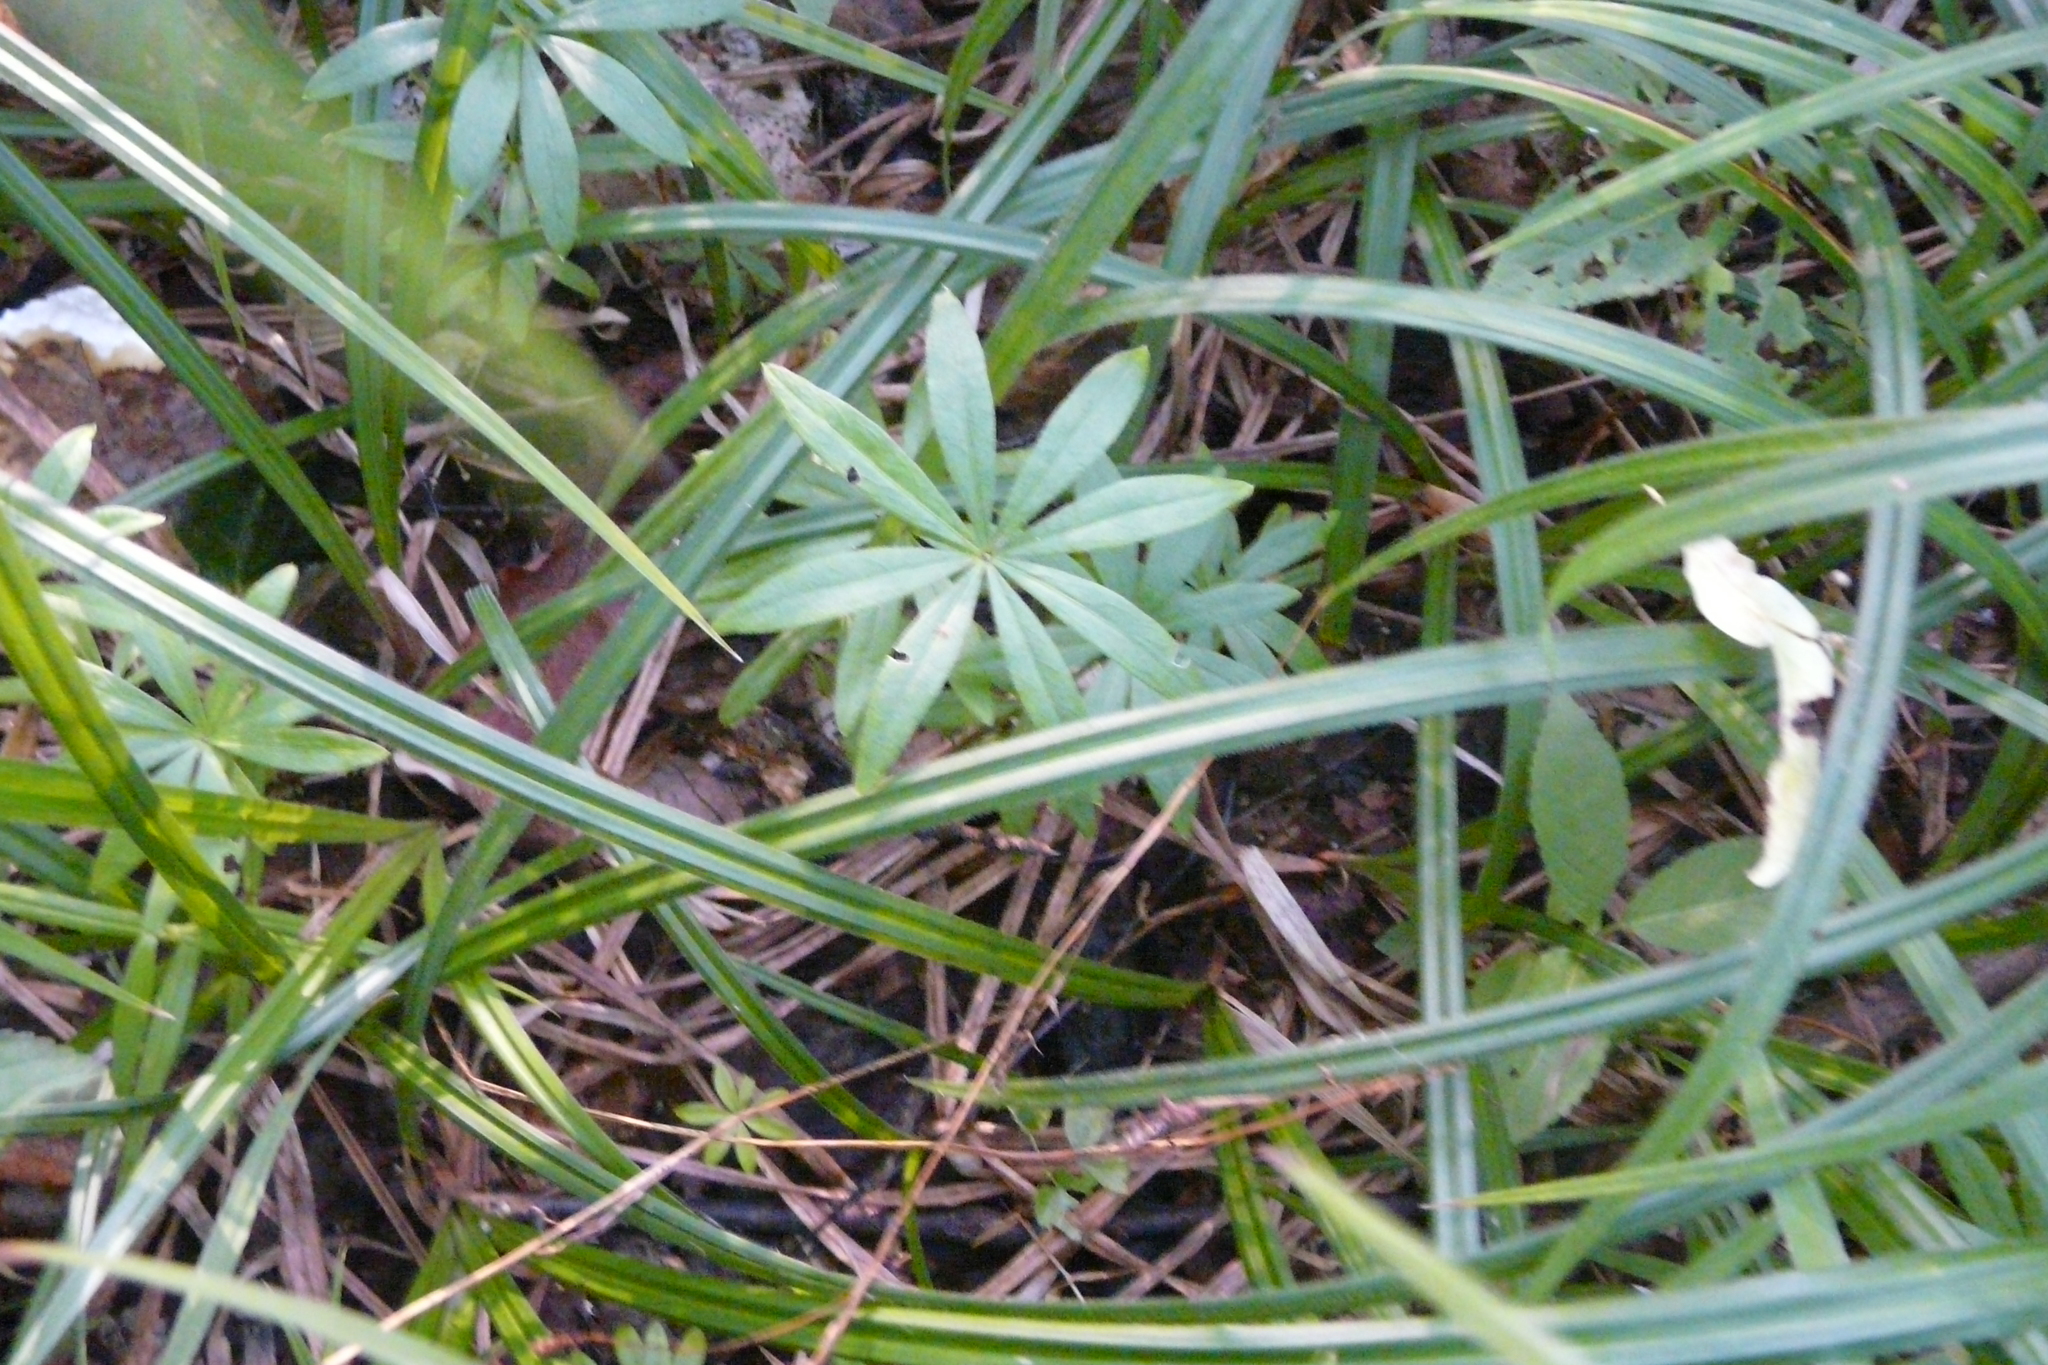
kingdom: Plantae
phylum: Tracheophyta
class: Magnoliopsida
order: Gentianales
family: Rubiaceae
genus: Galium
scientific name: Galium odoratum
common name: Sweet woodruff
